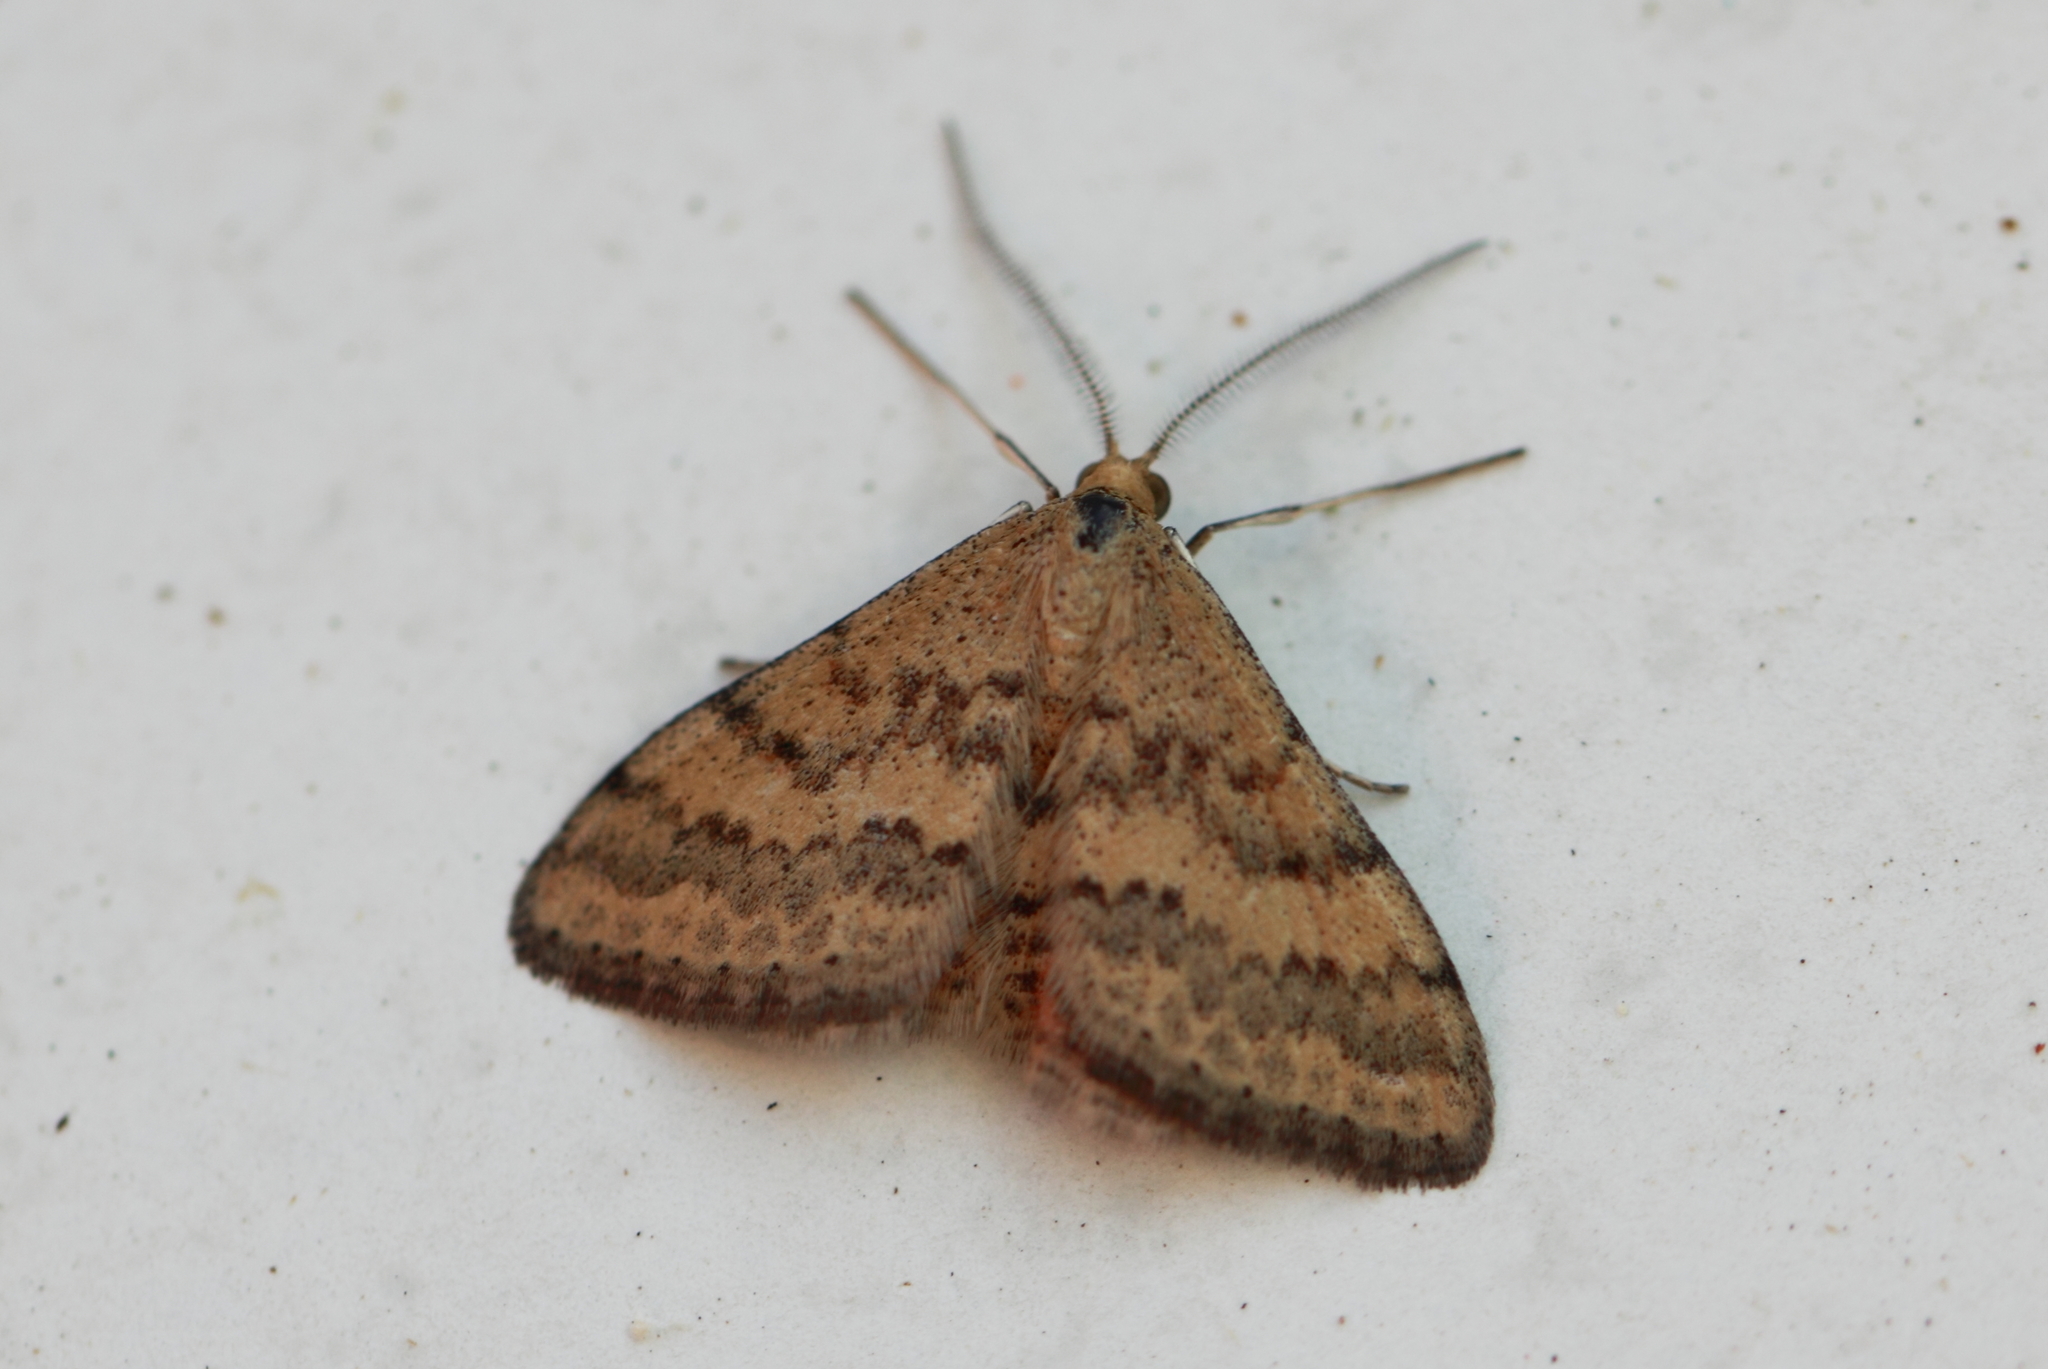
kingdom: Animalia
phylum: Arthropoda
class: Insecta
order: Lepidoptera
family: Geometridae
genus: Scopula
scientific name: Scopula rubraria
